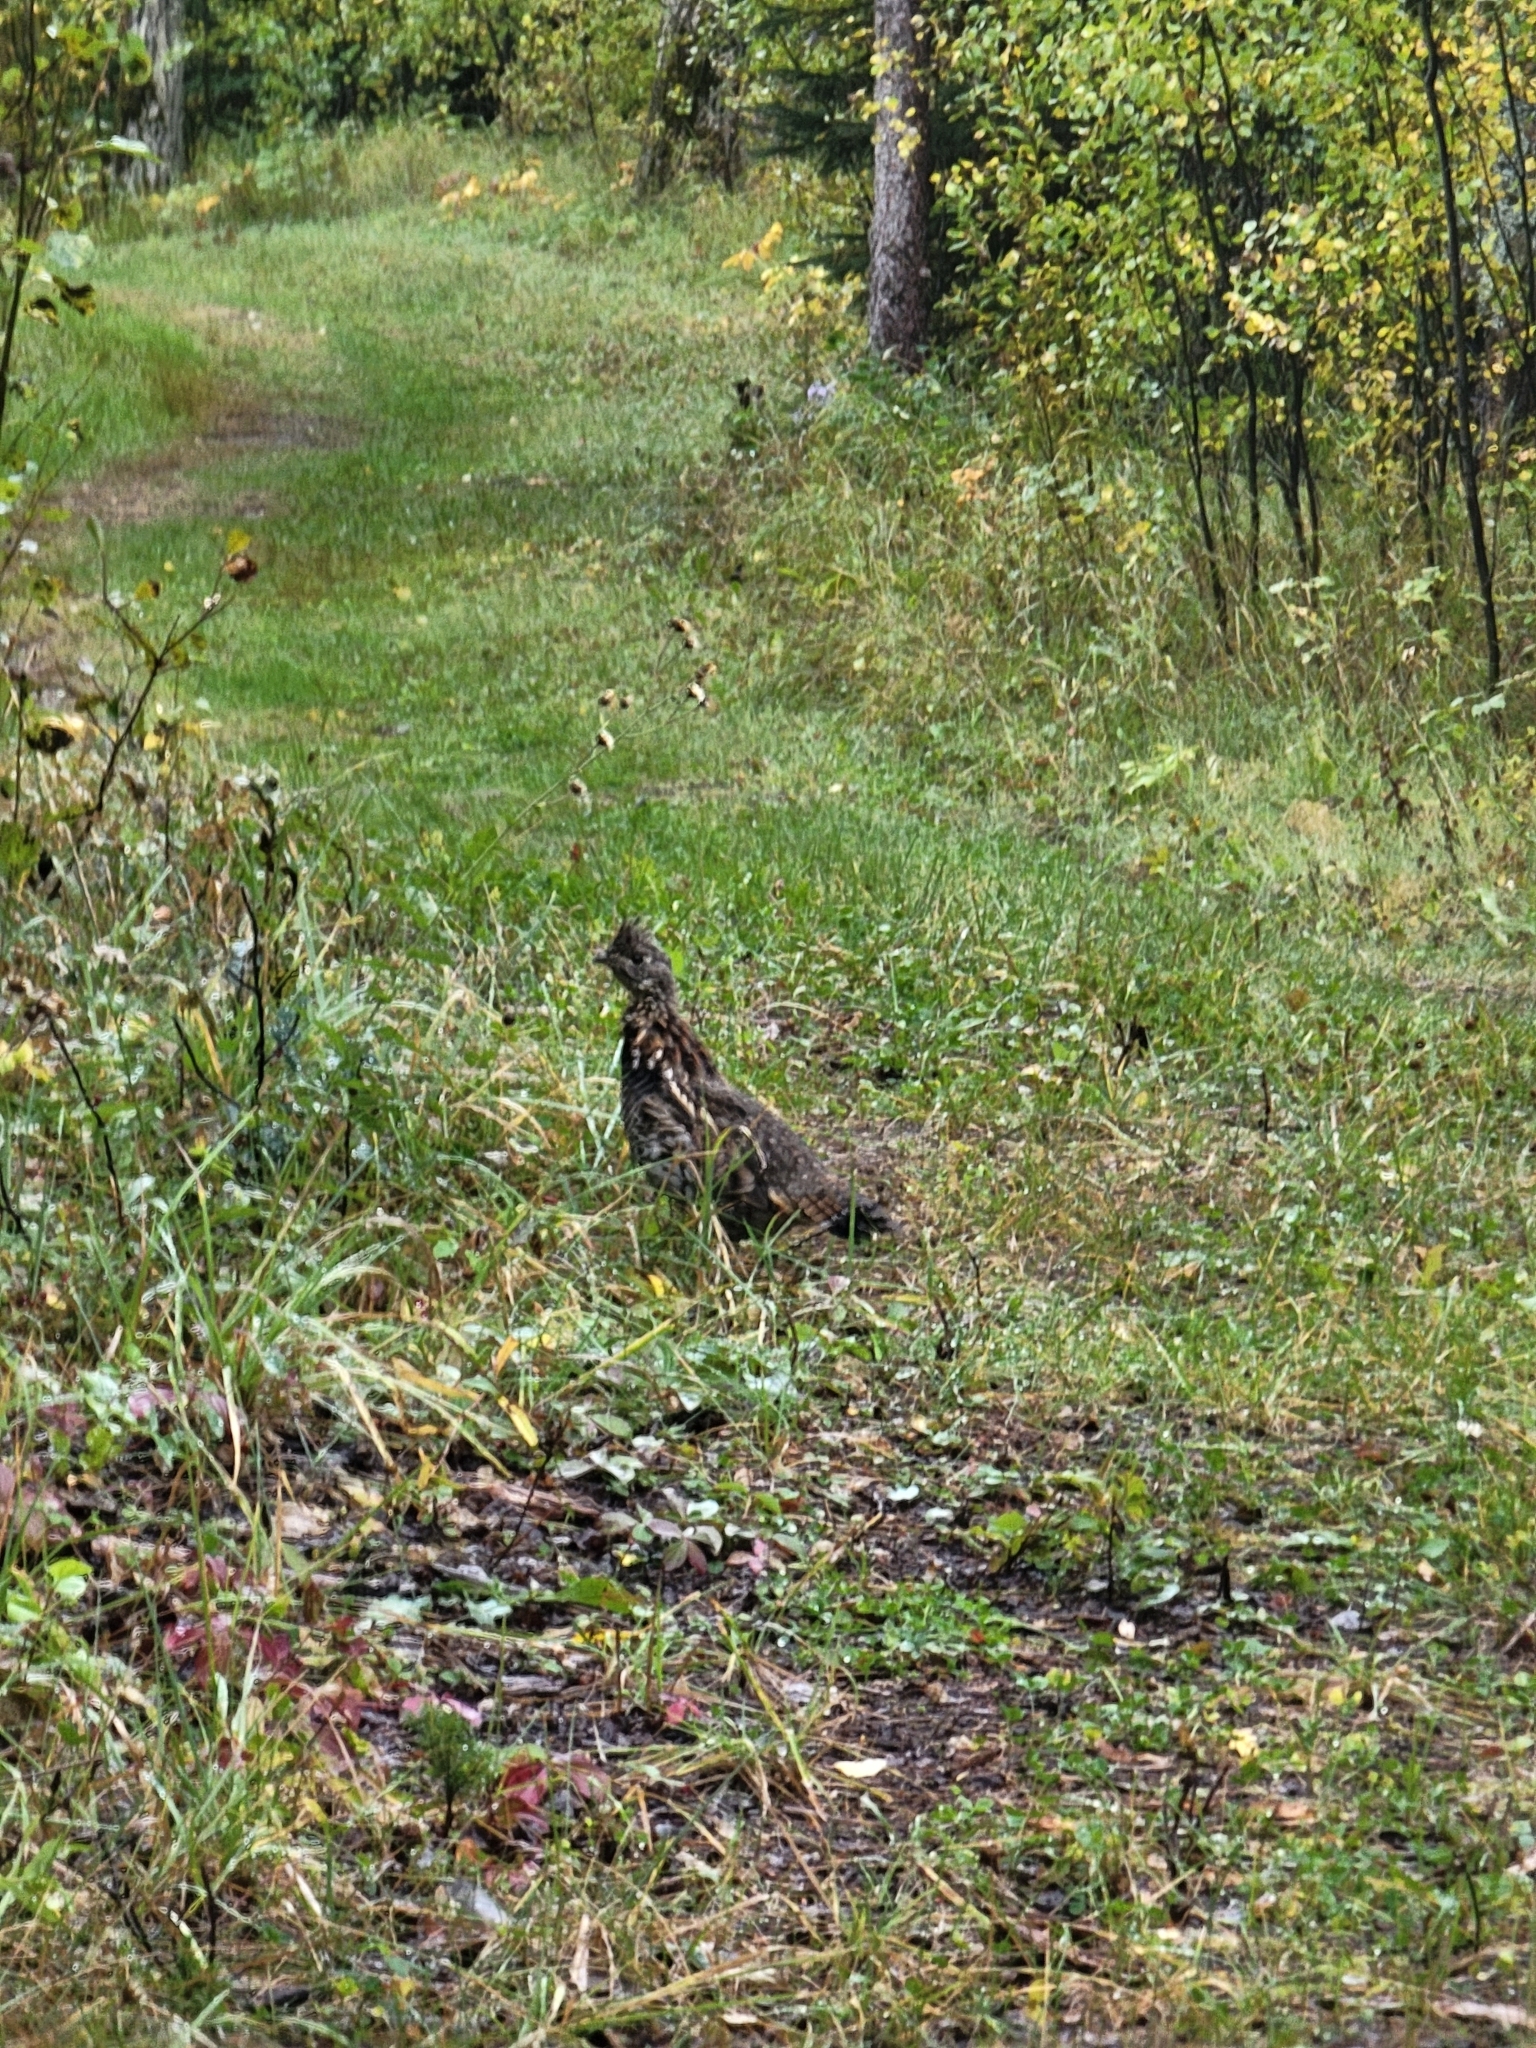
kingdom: Animalia
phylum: Chordata
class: Aves
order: Galliformes
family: Phasianidae
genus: Bonasa
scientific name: Bonasa umbellus
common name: Ruffed grouse
